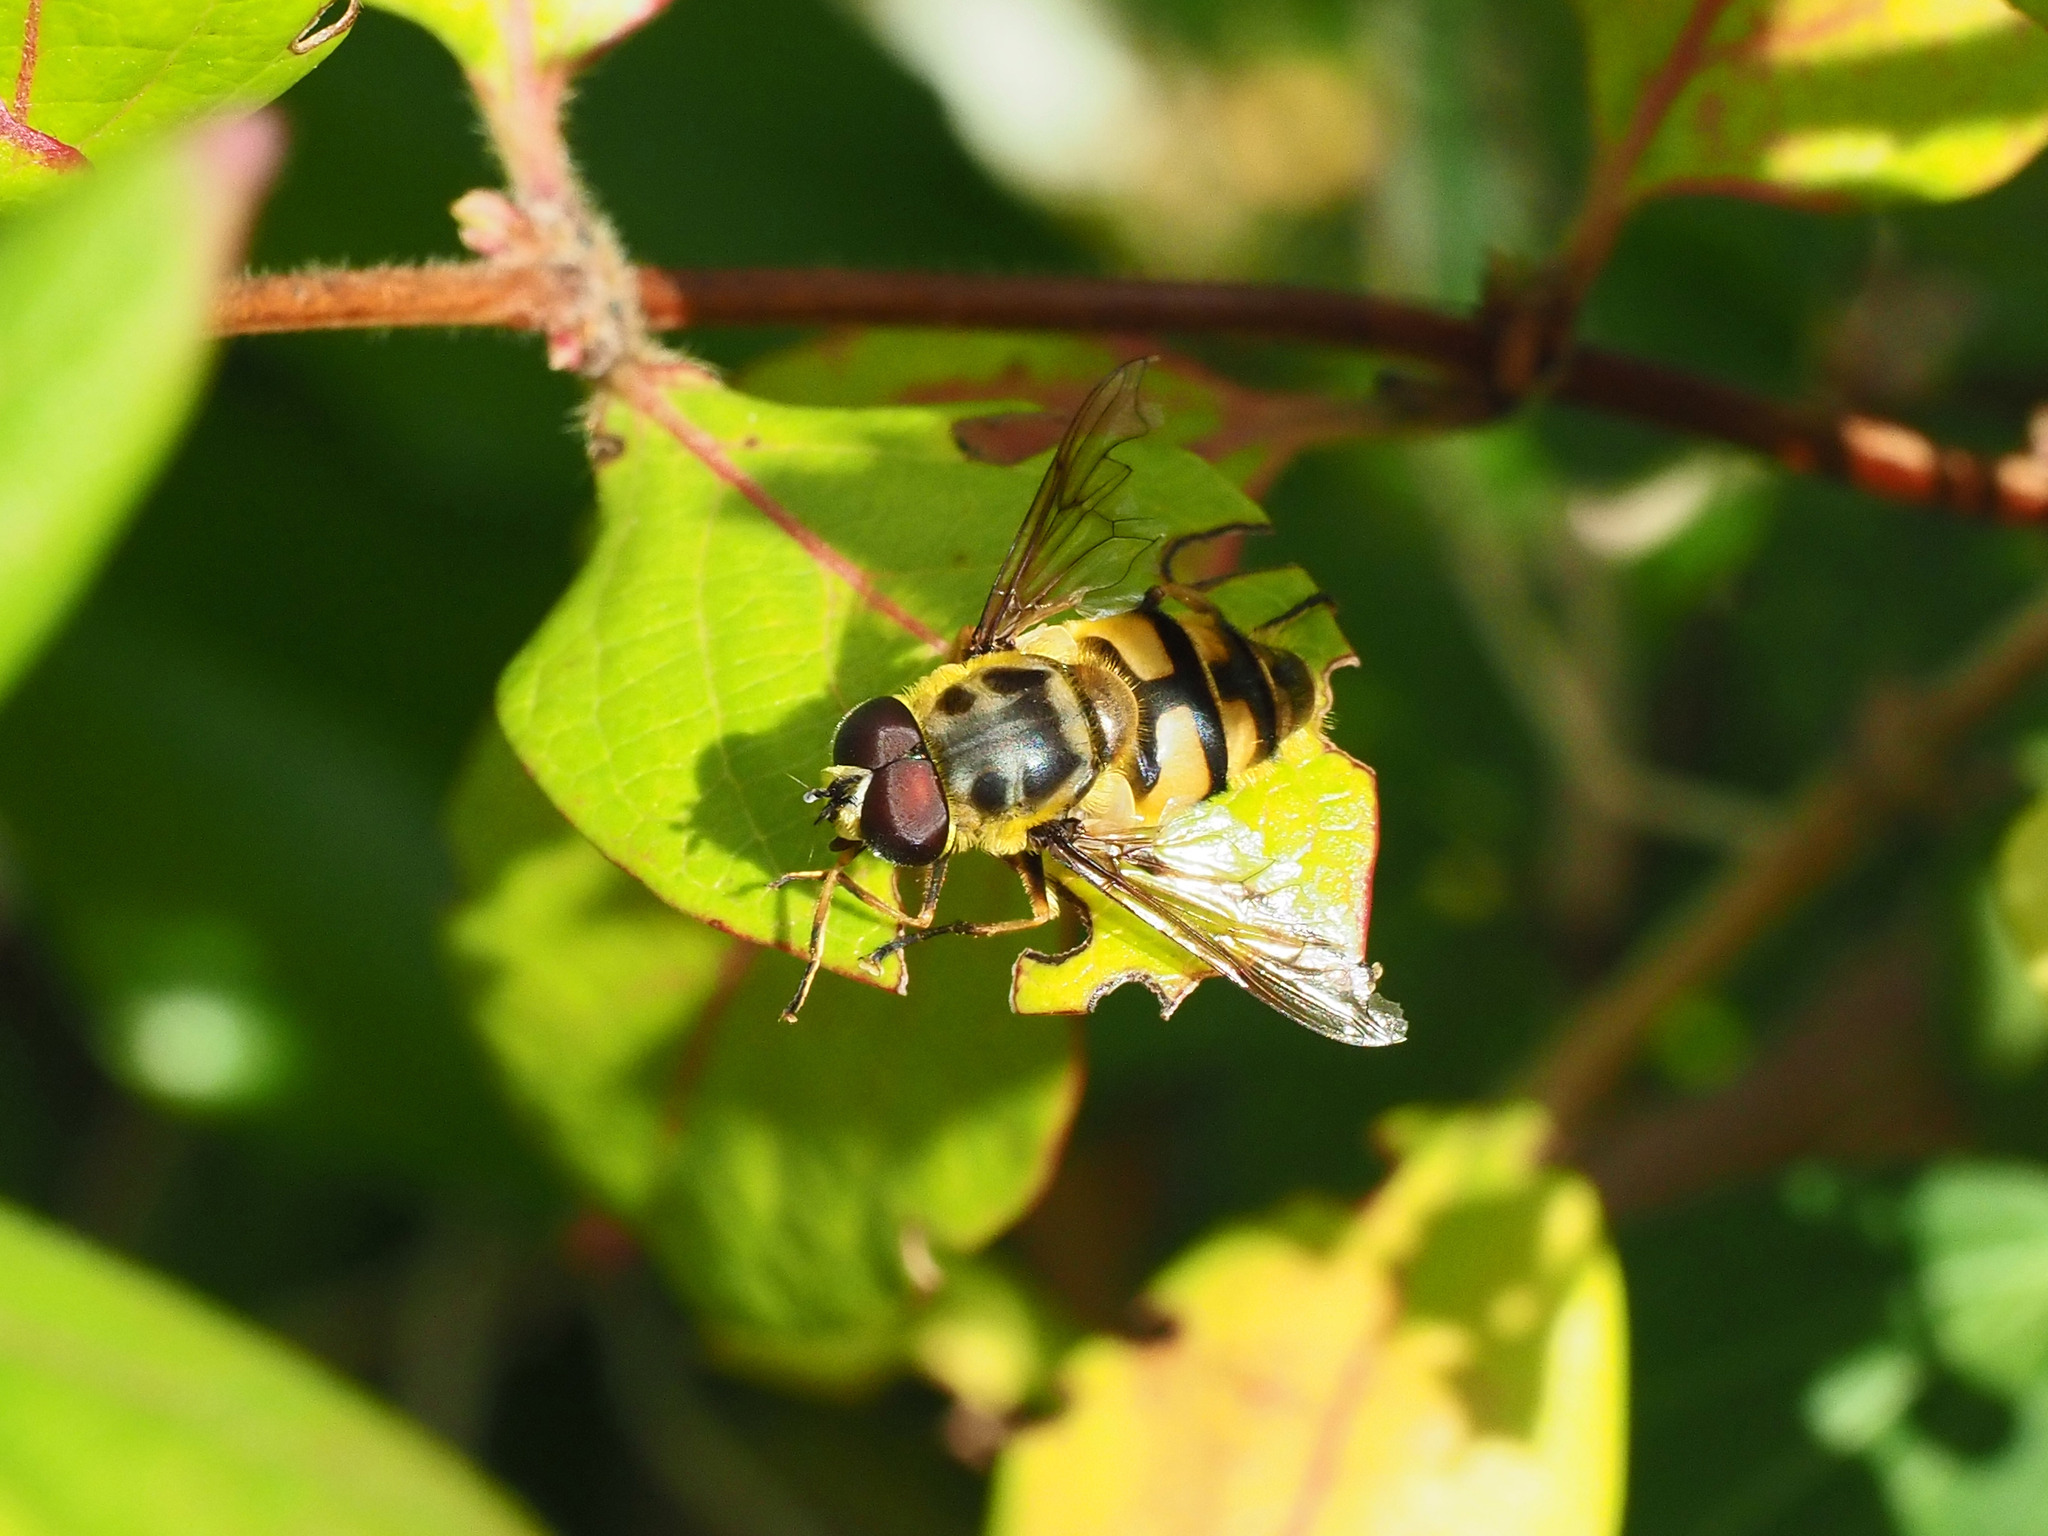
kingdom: Animalia
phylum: Arthropoda
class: Insecta
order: Diptera
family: Syrphidae
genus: Myathropa
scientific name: Myathropa florea
